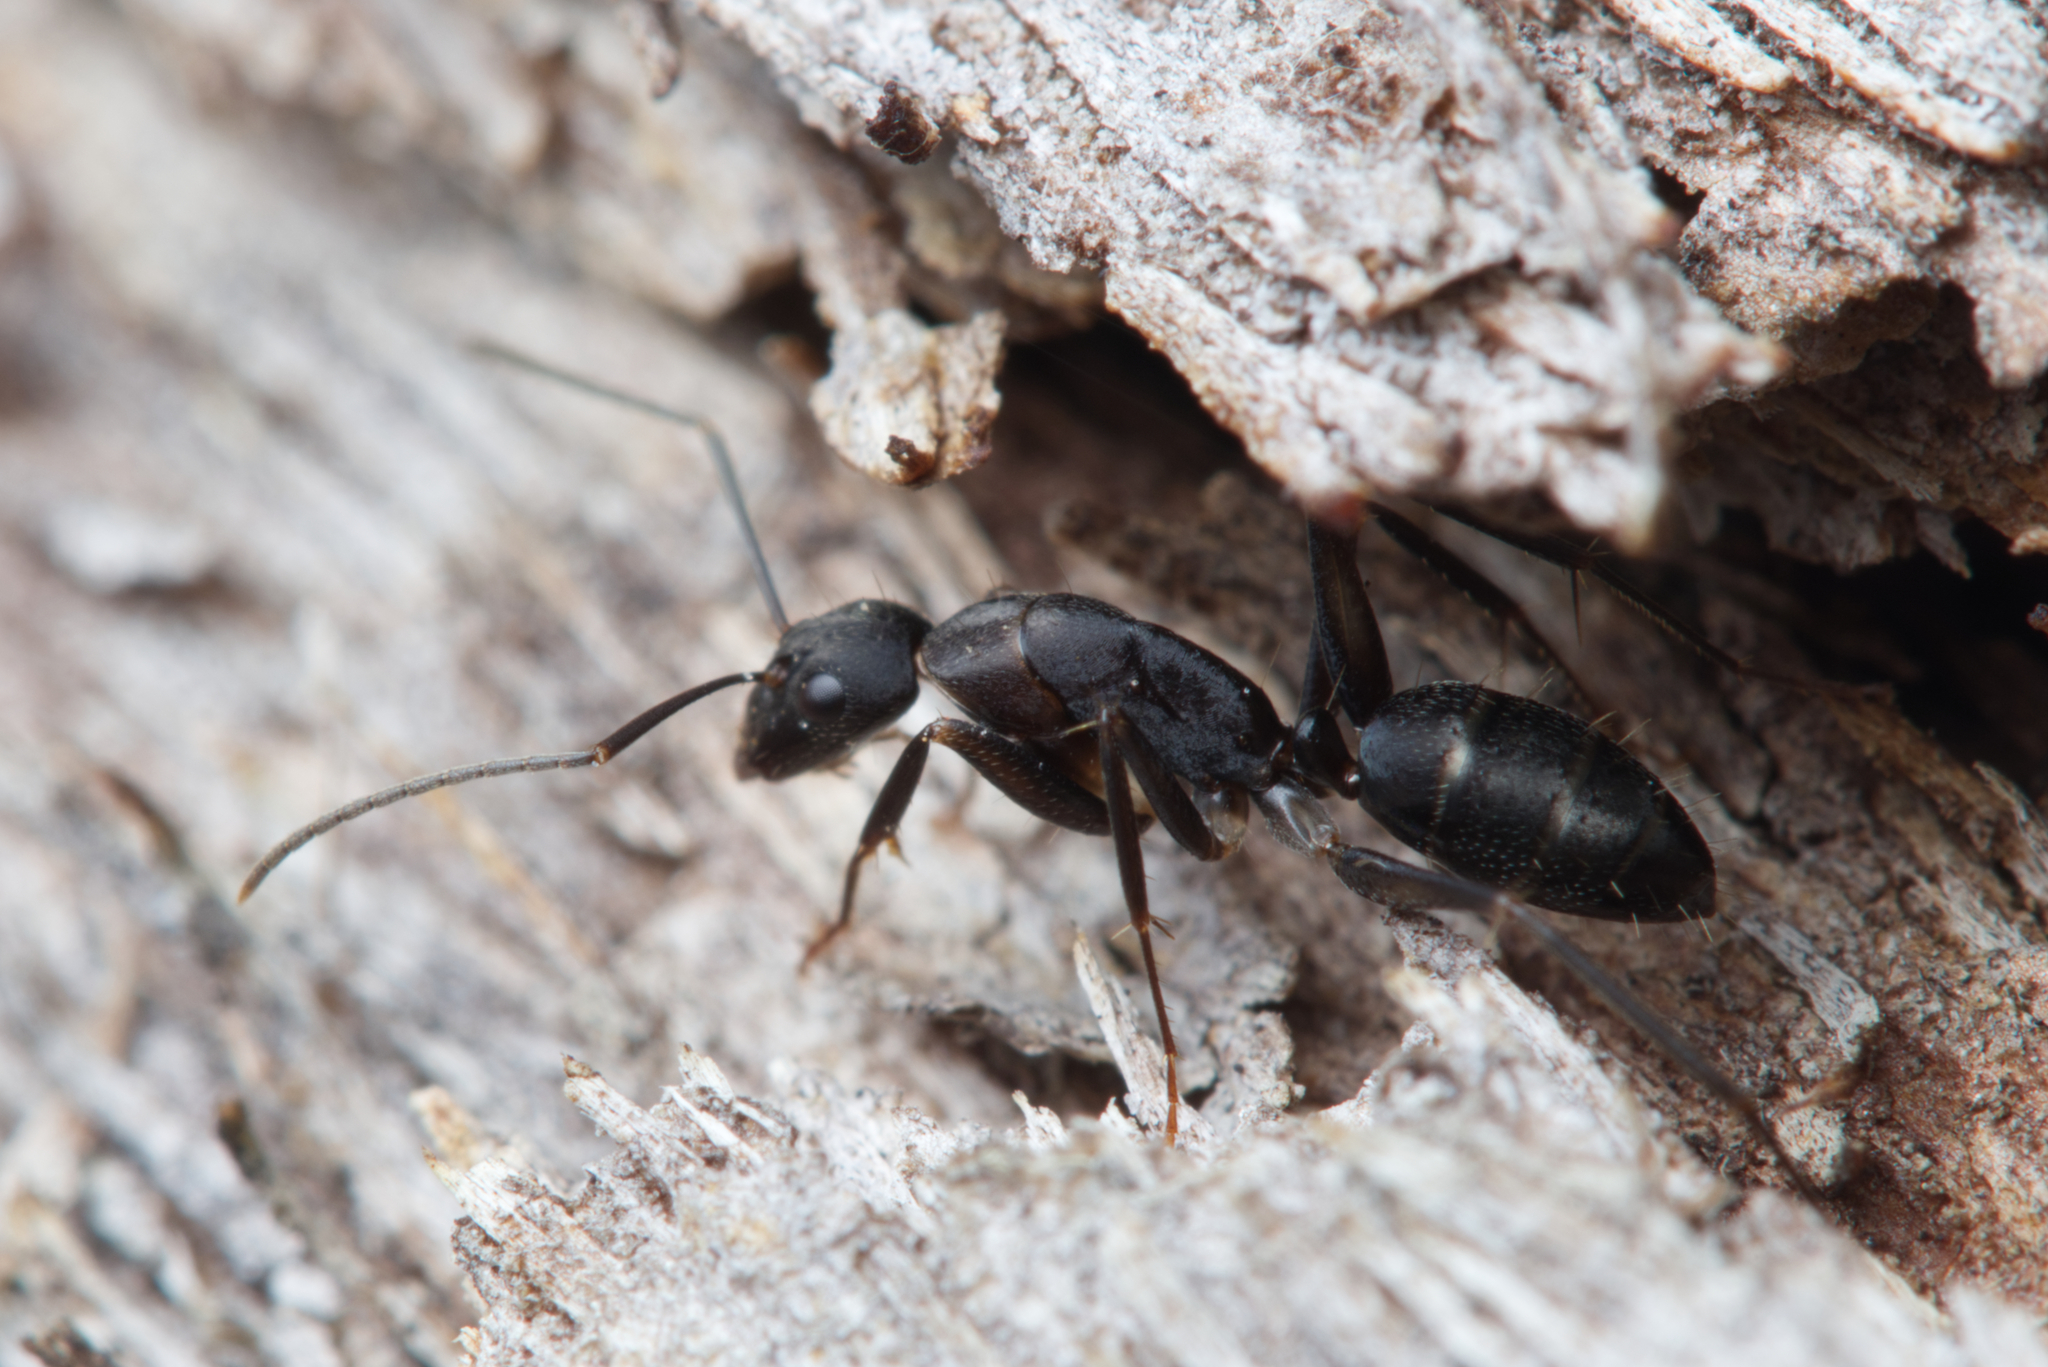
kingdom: Animalia
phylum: Arthropoda
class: Insecta
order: Hymenoptera
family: Formicidae
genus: Camponotus
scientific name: Camponotus lividicoxis
